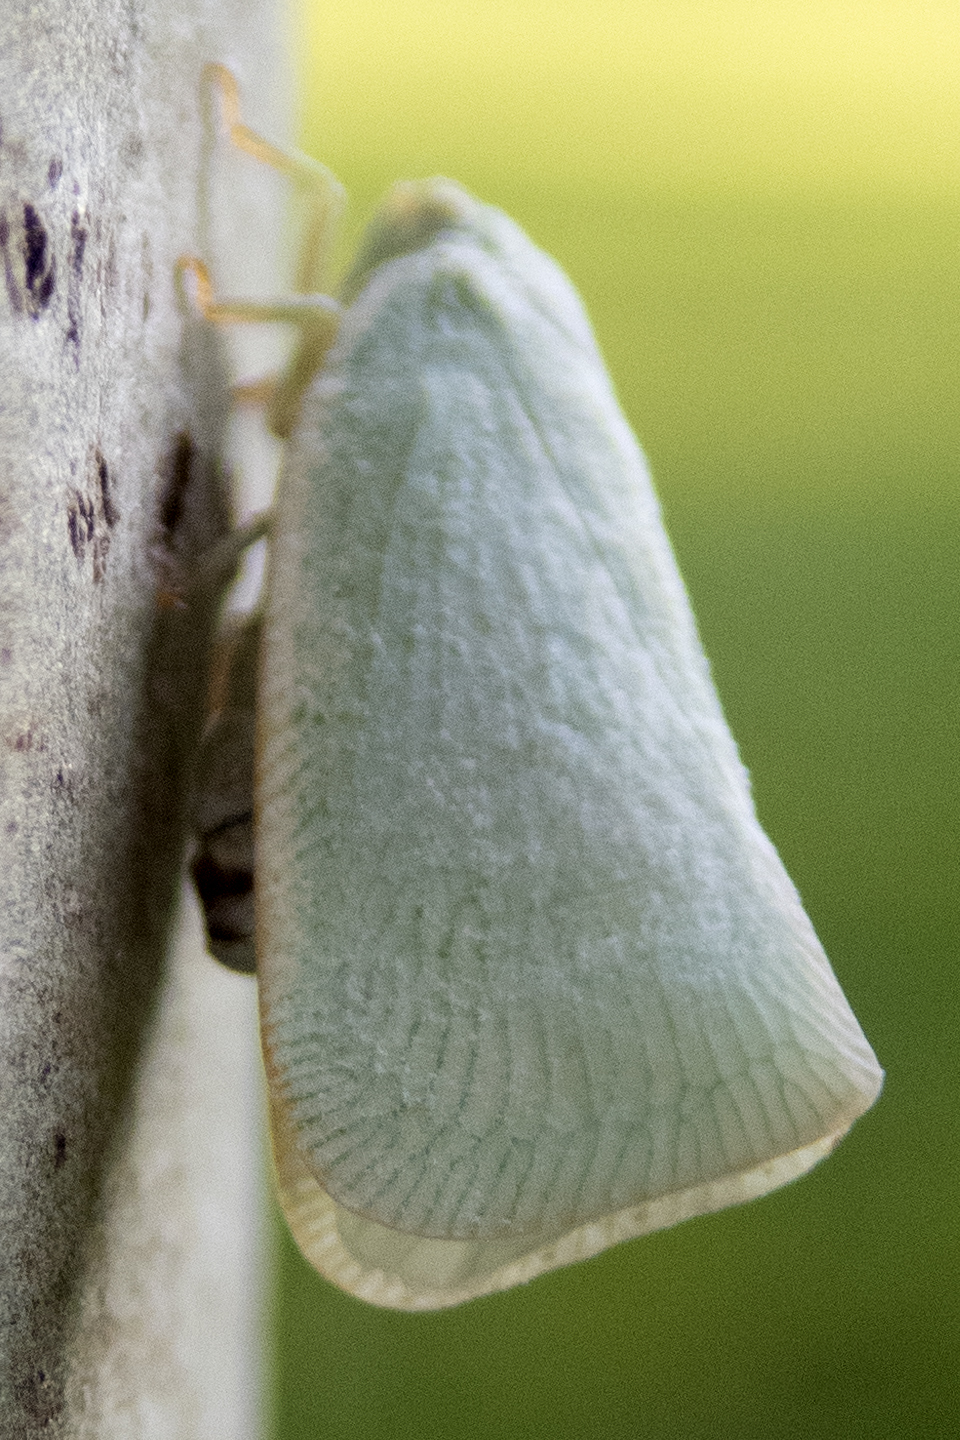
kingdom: Animalia
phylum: Arthropoda
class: Insecta
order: Hemiptera
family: Flatidae
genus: Flatormenis
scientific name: Flatormenis proxima
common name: Northern flatid planthopper
